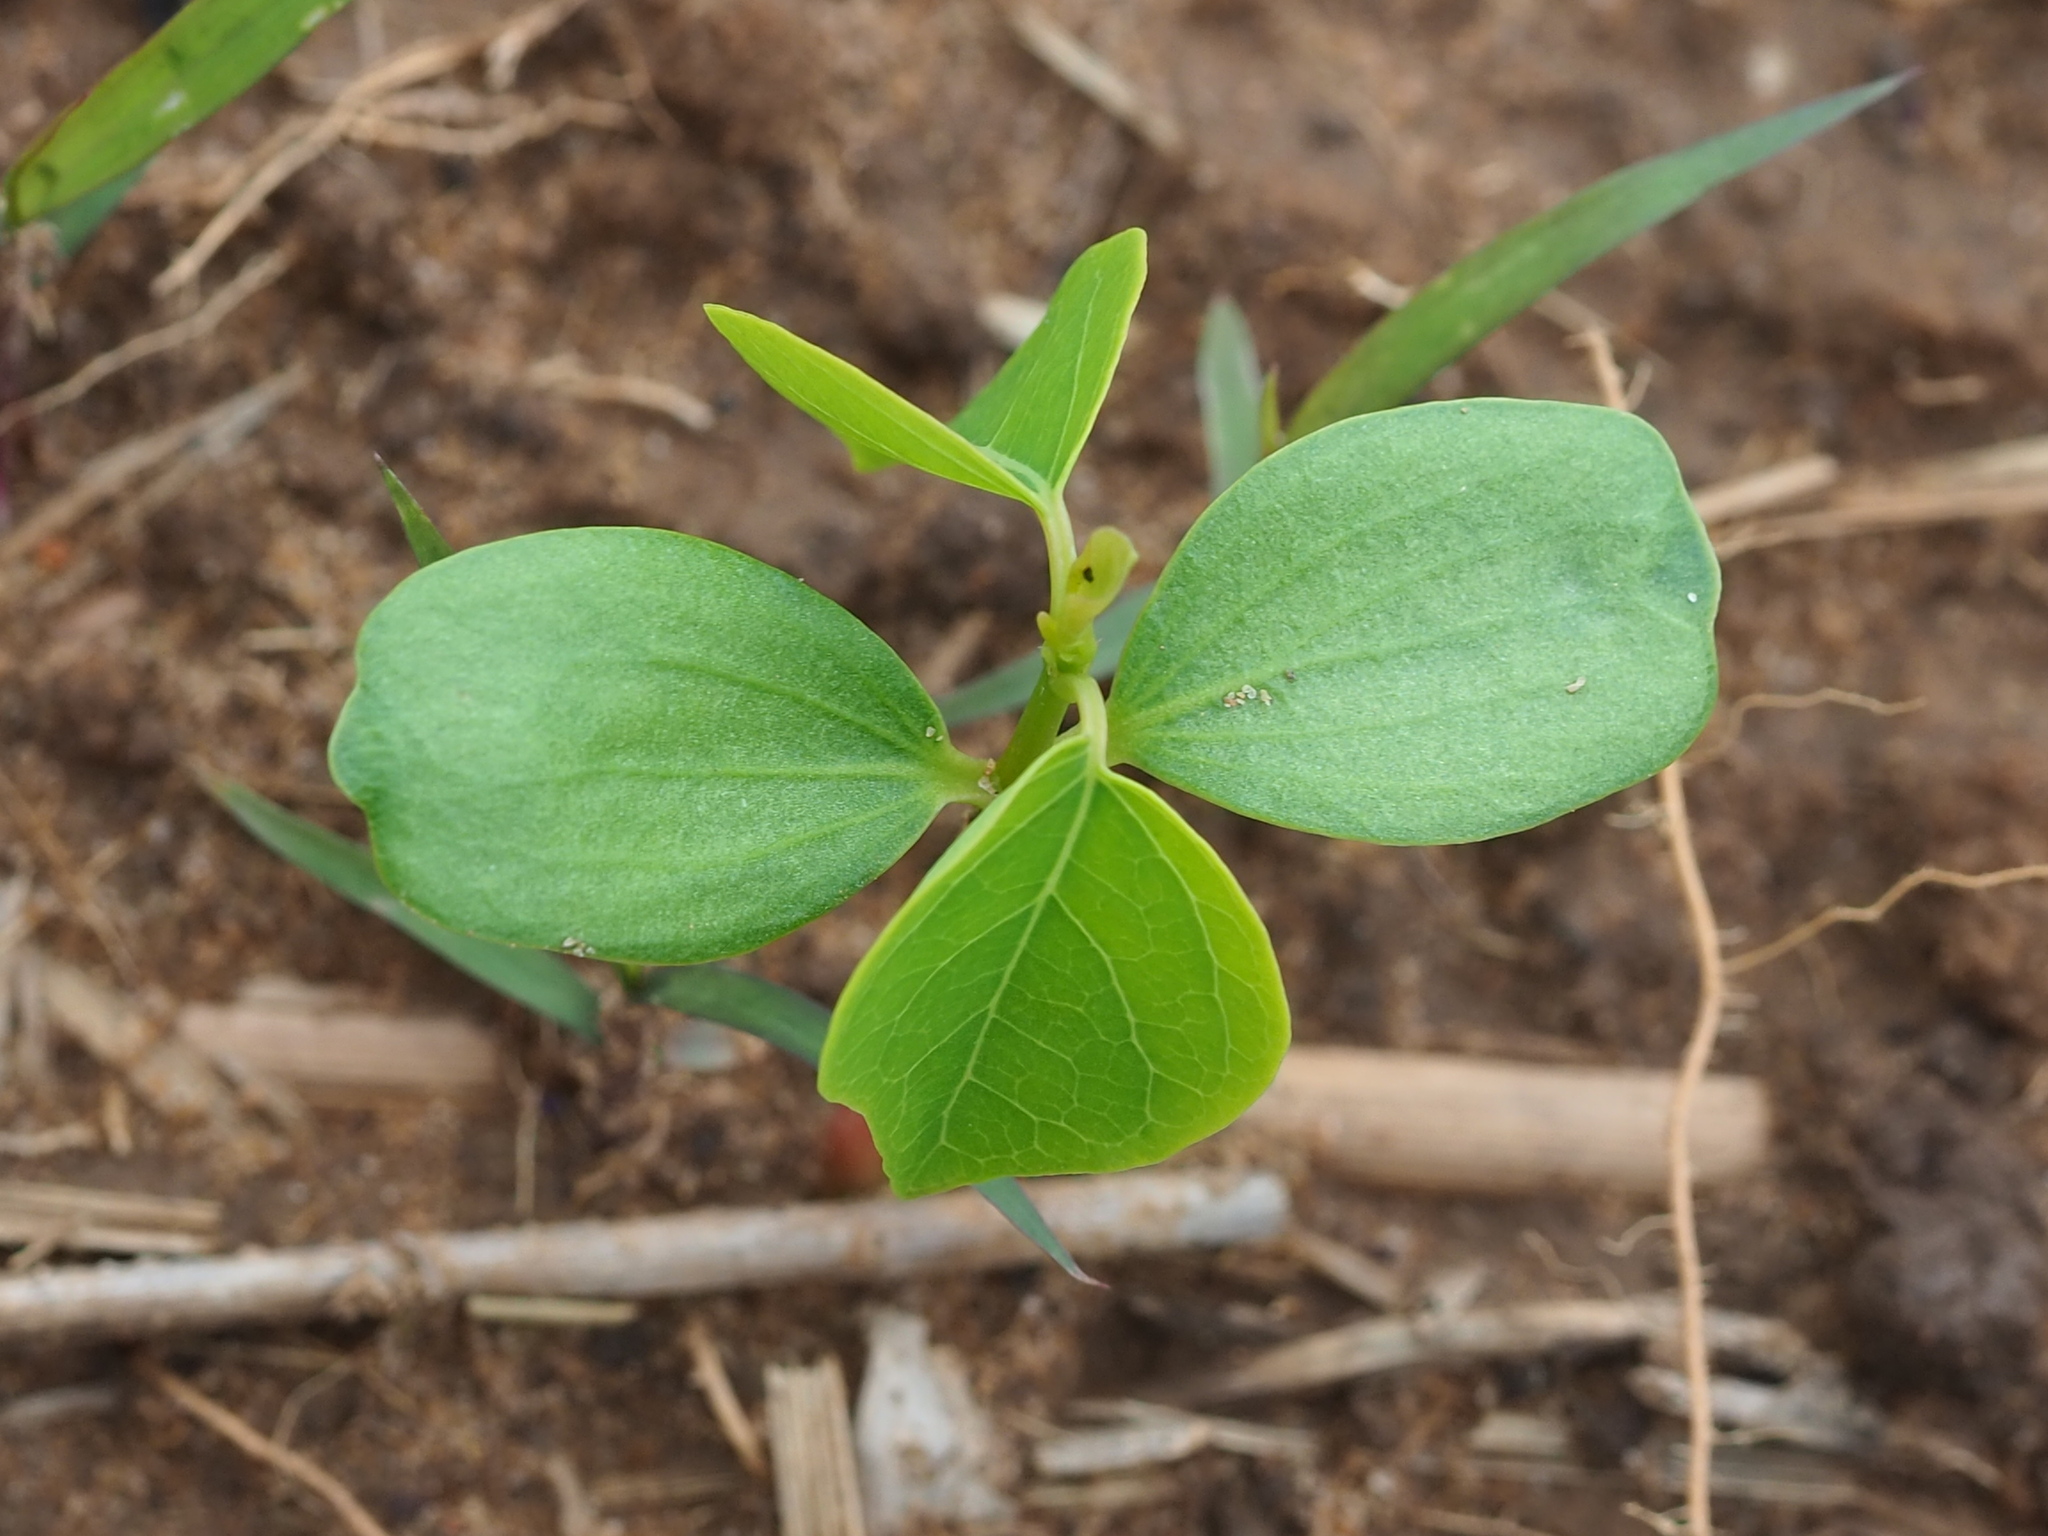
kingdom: Plantae
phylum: Tracheophyta
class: Magnoliopsida
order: Malpighiales
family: Euphorbiaceae
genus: Triadica
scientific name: Triadica sebifera
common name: Chinese tallow
